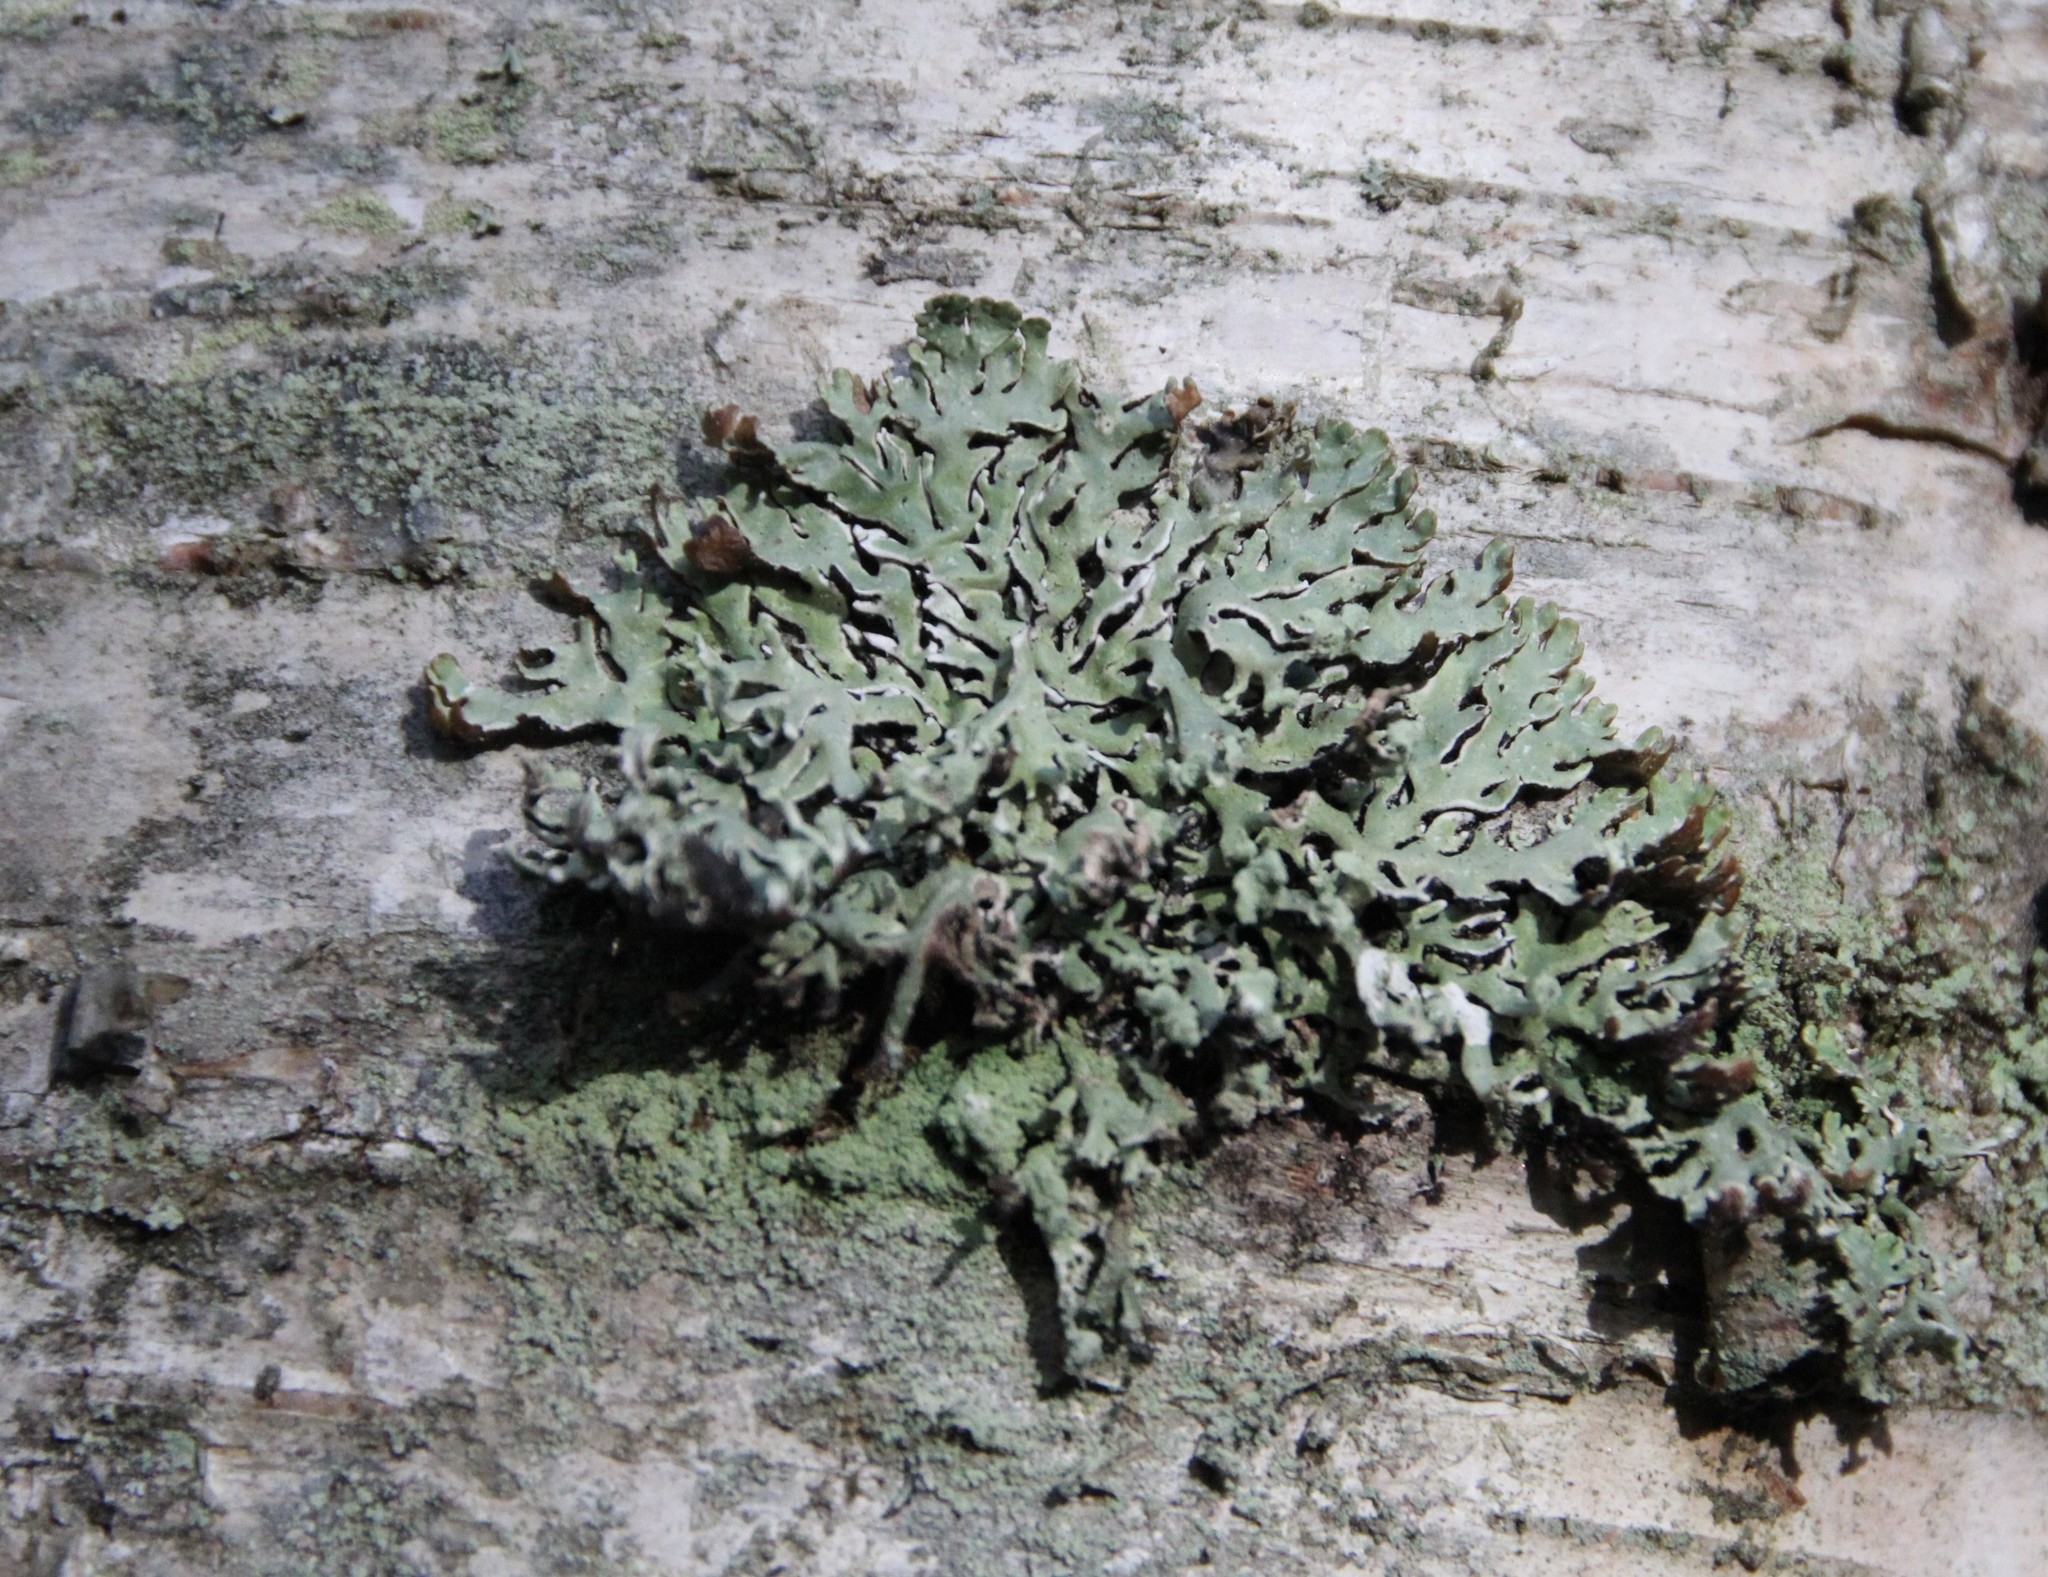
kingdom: Fungi
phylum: Ascomycota
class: Lecanoromycetes
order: Lecanorales
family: Parmeliaceae
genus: Hypogymnia
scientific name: Hypogymnia physodes
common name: Dark crottle
